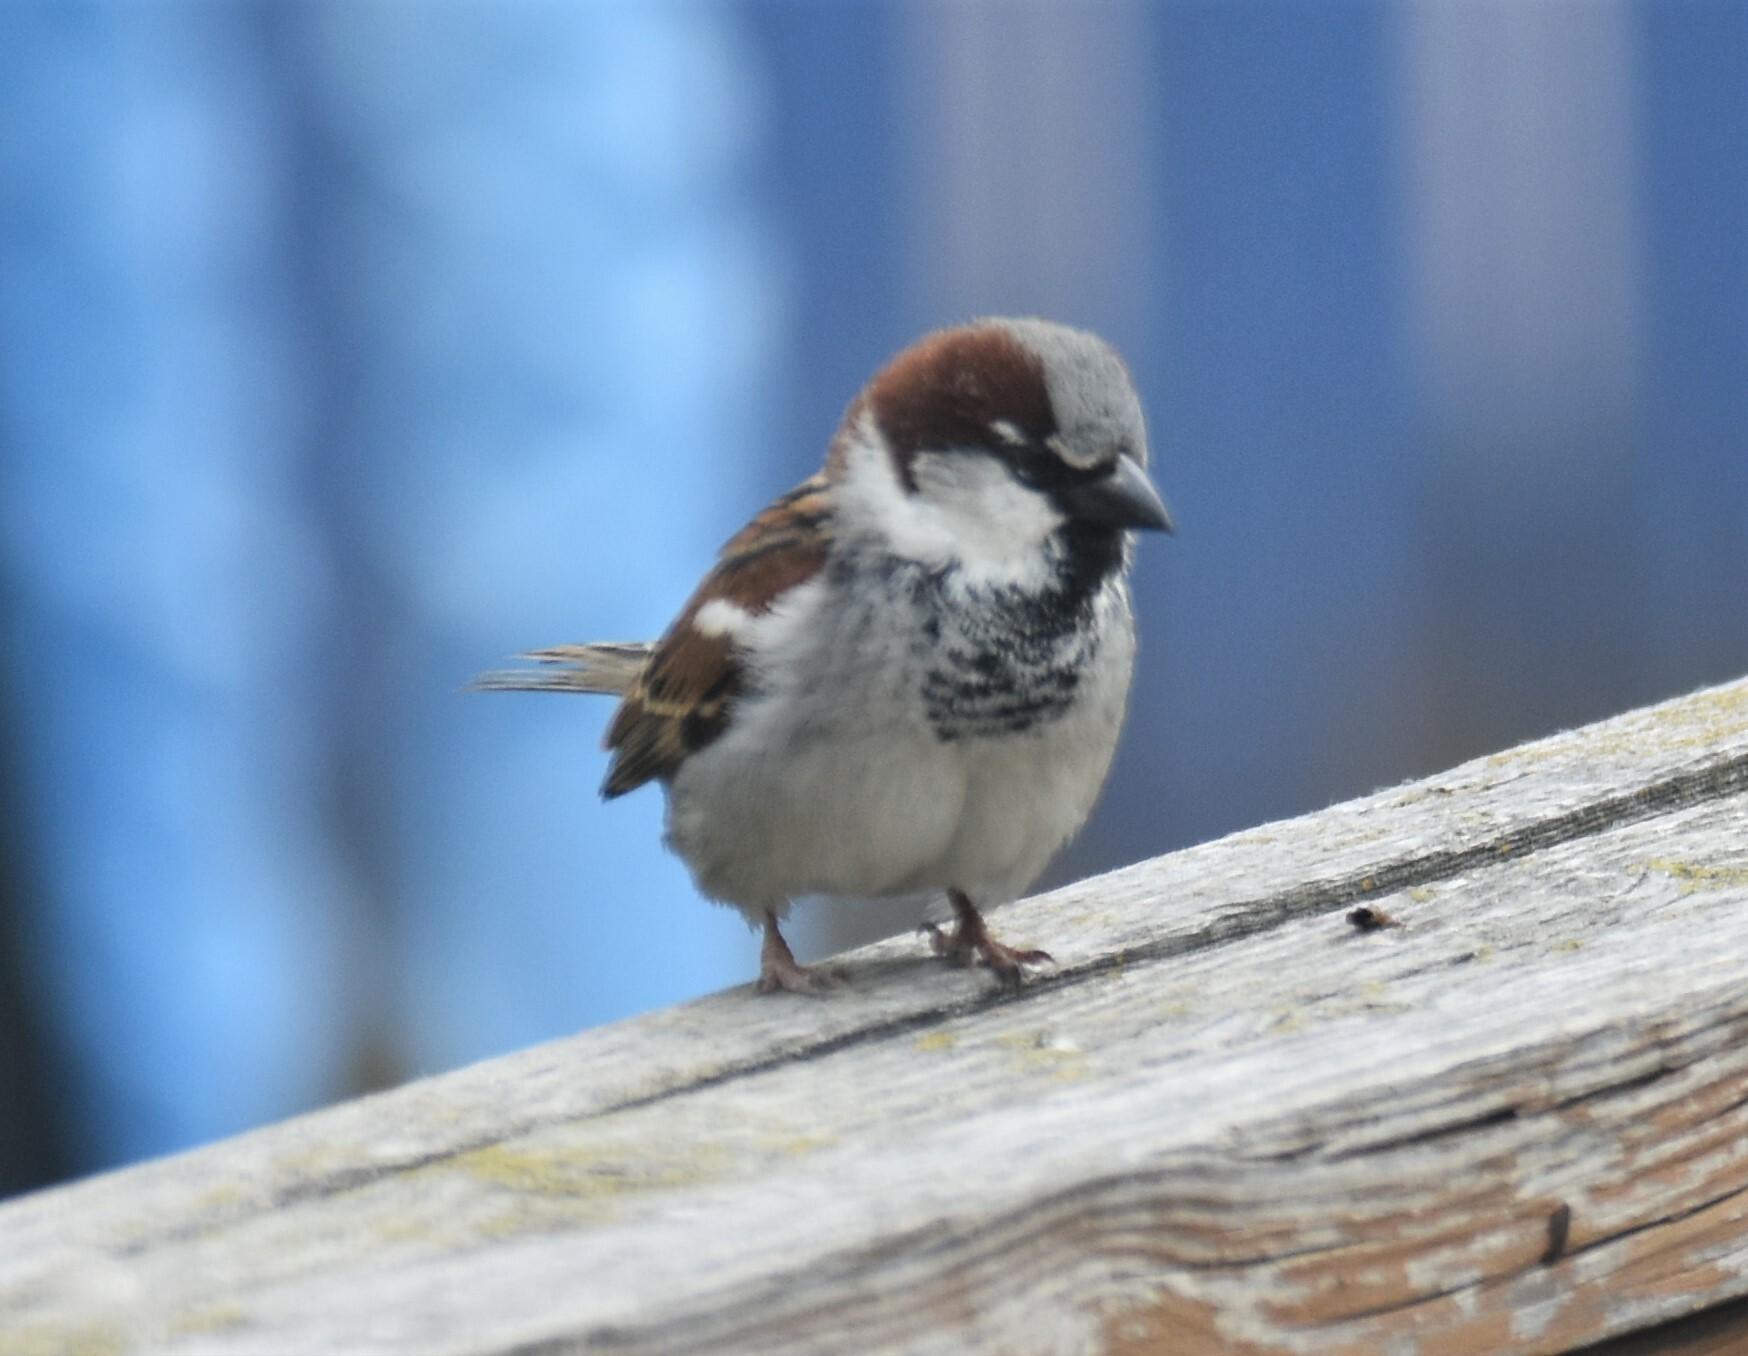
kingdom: Animalia
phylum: Chordata
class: Aves
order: Passeriformes
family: Passeridae
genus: Passer
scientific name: Passer domesticus
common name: House sparrow
